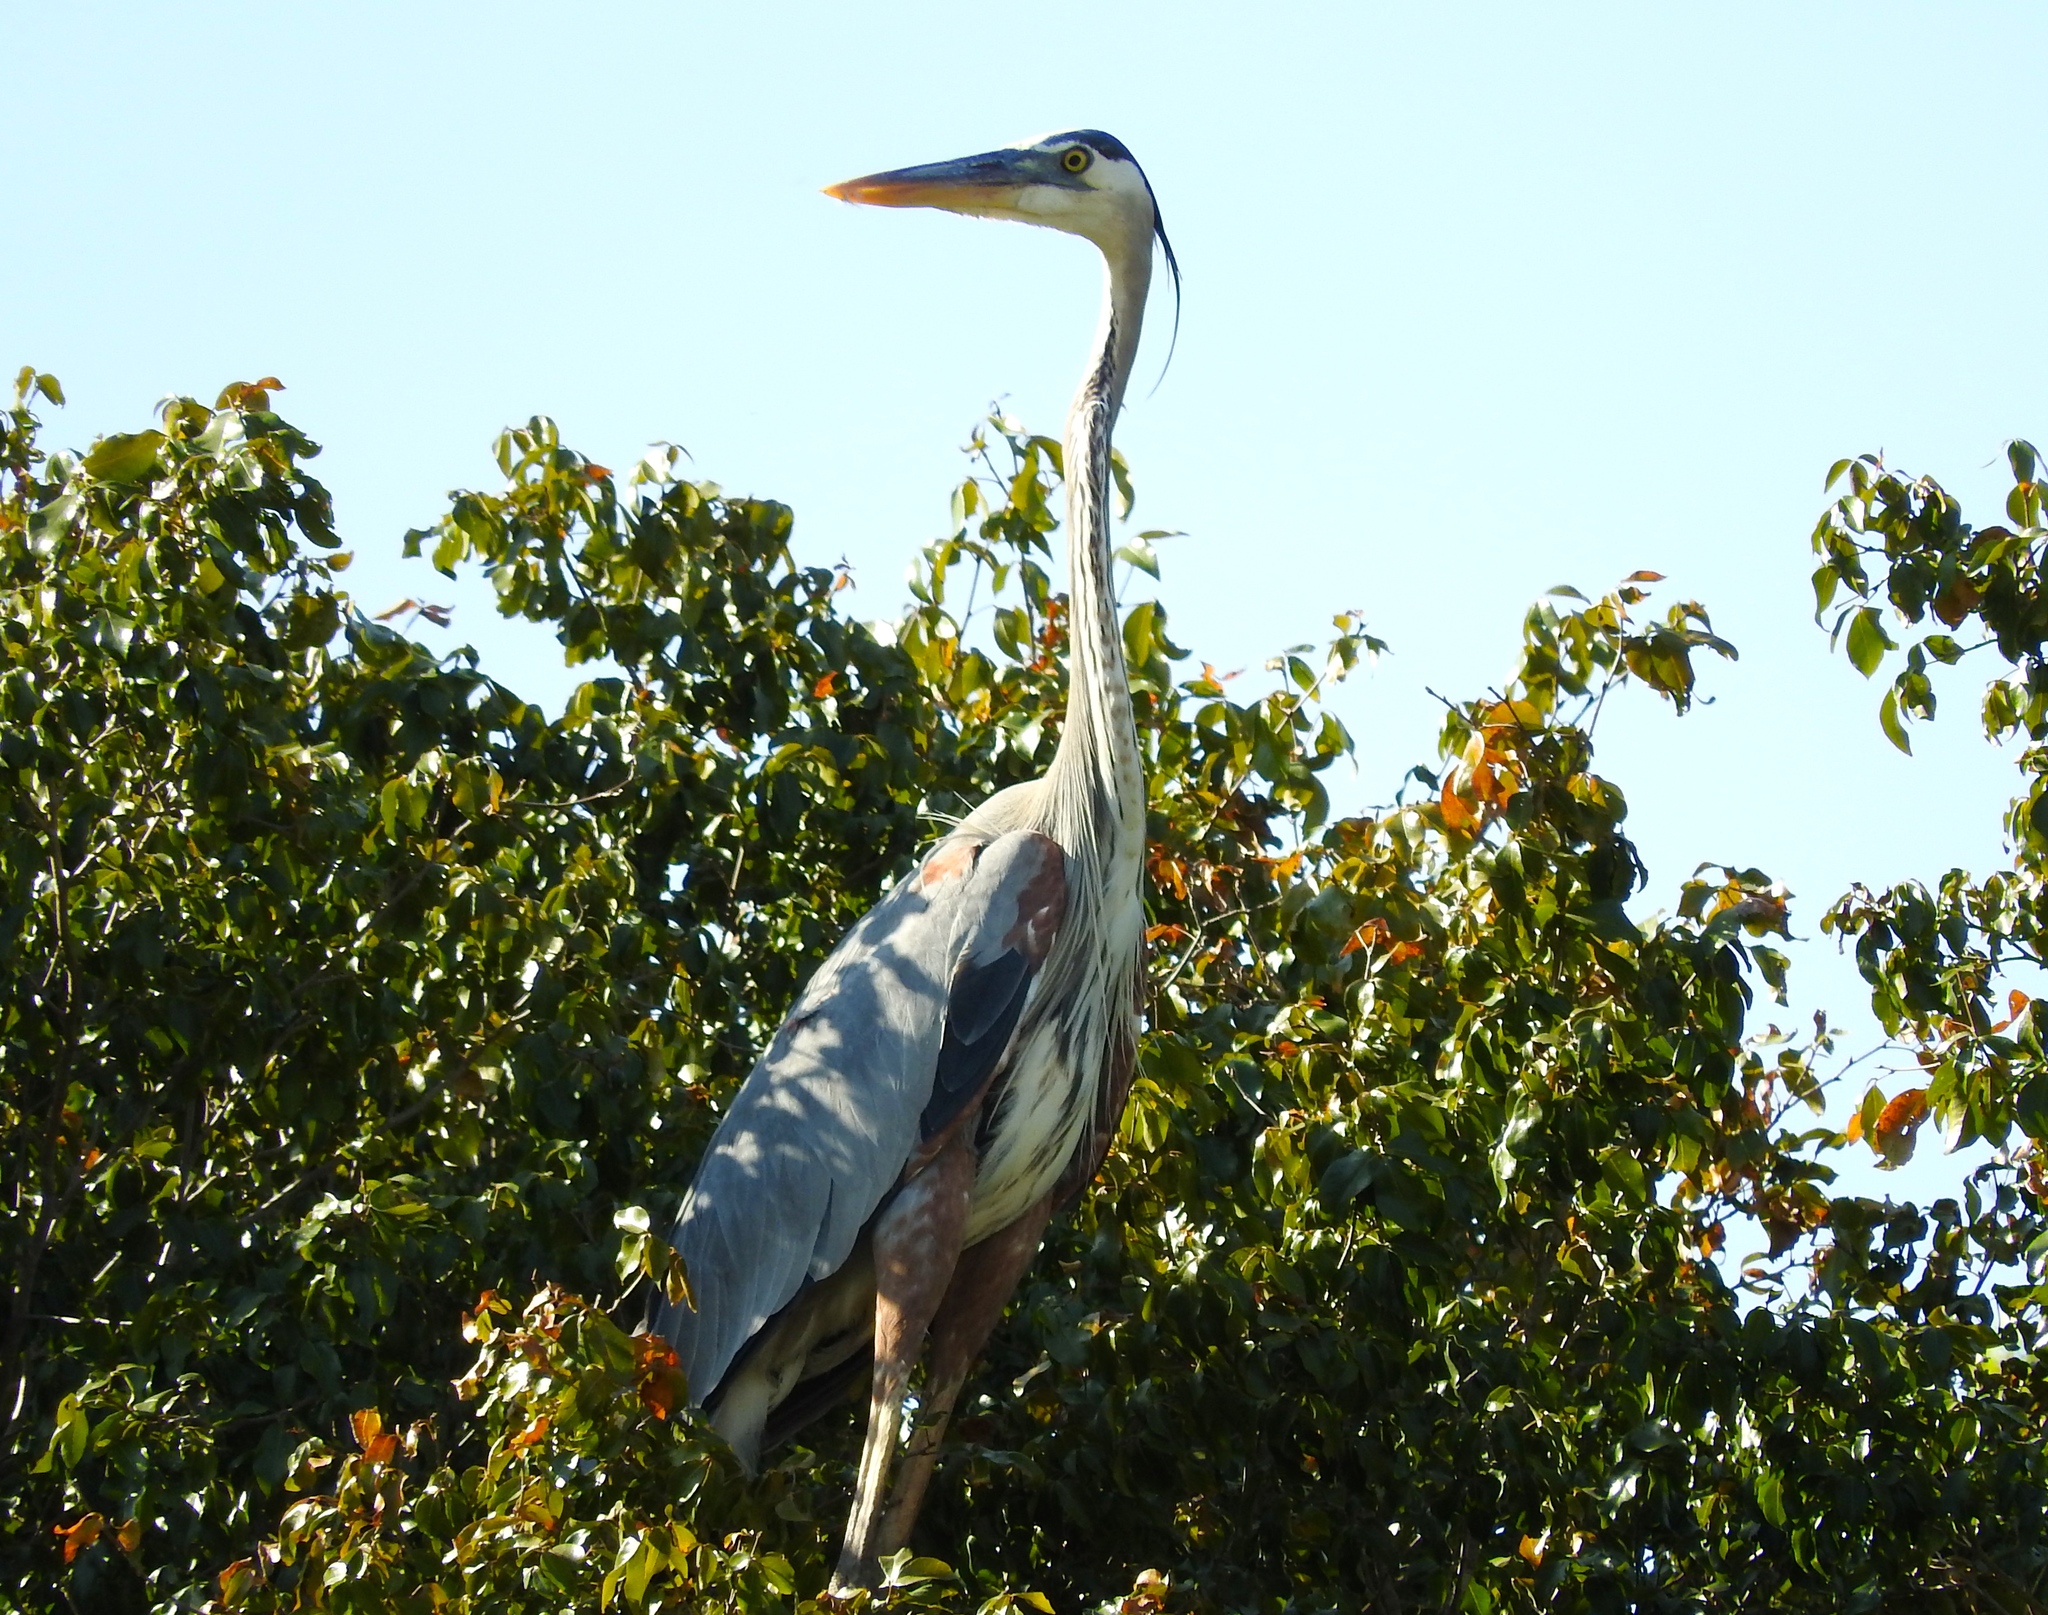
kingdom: Animalia
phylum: Chordata
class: Aves
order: Pelecaniformes
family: Ardeidae
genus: Ardea
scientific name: Ardea herodias
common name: Great blue heron
